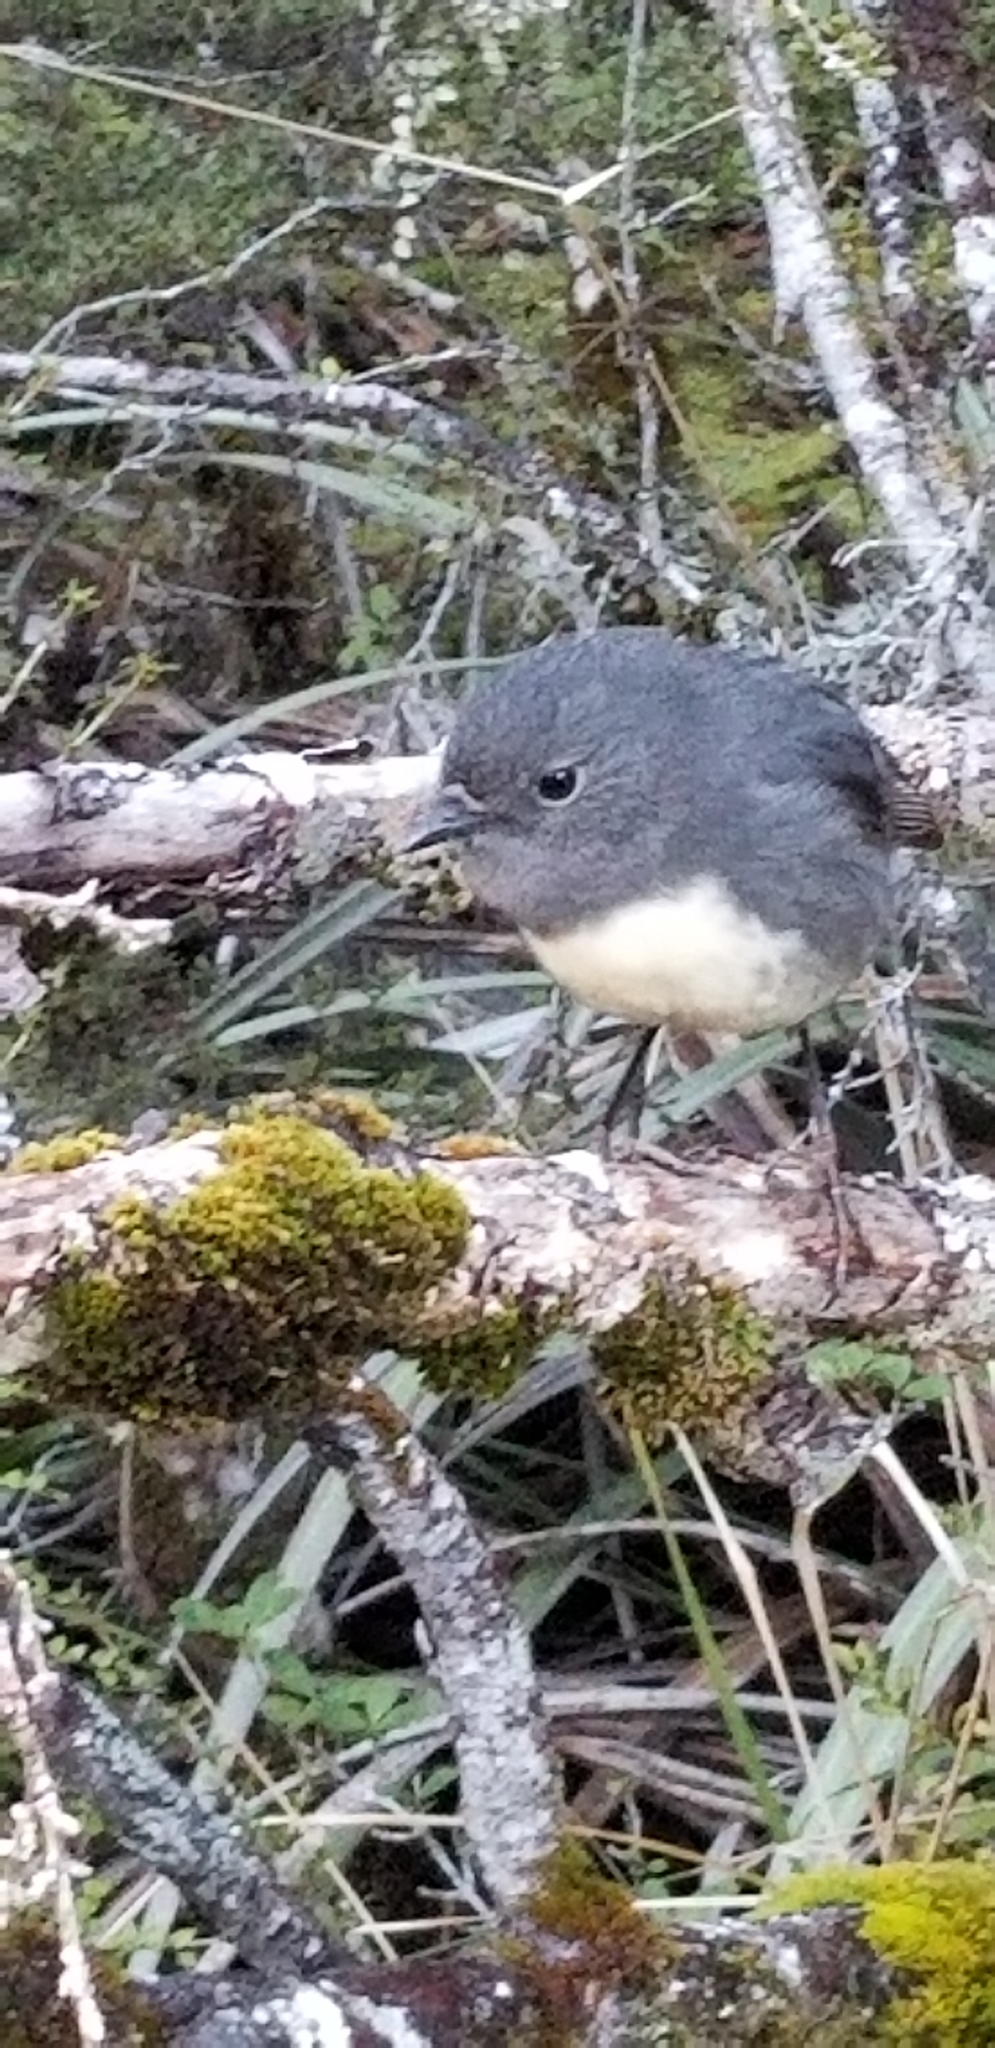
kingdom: Animalia
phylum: Chordata
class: Aves
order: Passeriformes
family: Petroicidae
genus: Petroica
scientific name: Petroica australis
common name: New zealand robin
